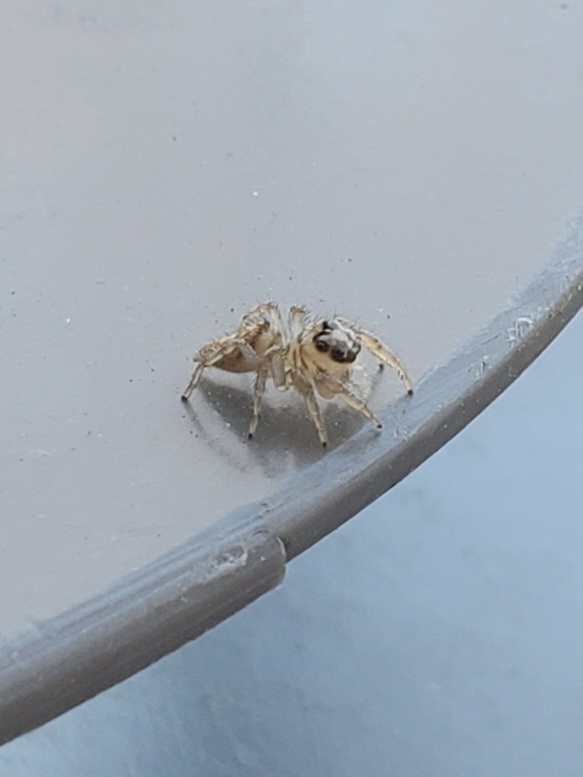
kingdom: Animalia
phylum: Arthropoda
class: Arachnida
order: Araneae
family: Salticidae
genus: Colonus
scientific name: Colonus hesperus
